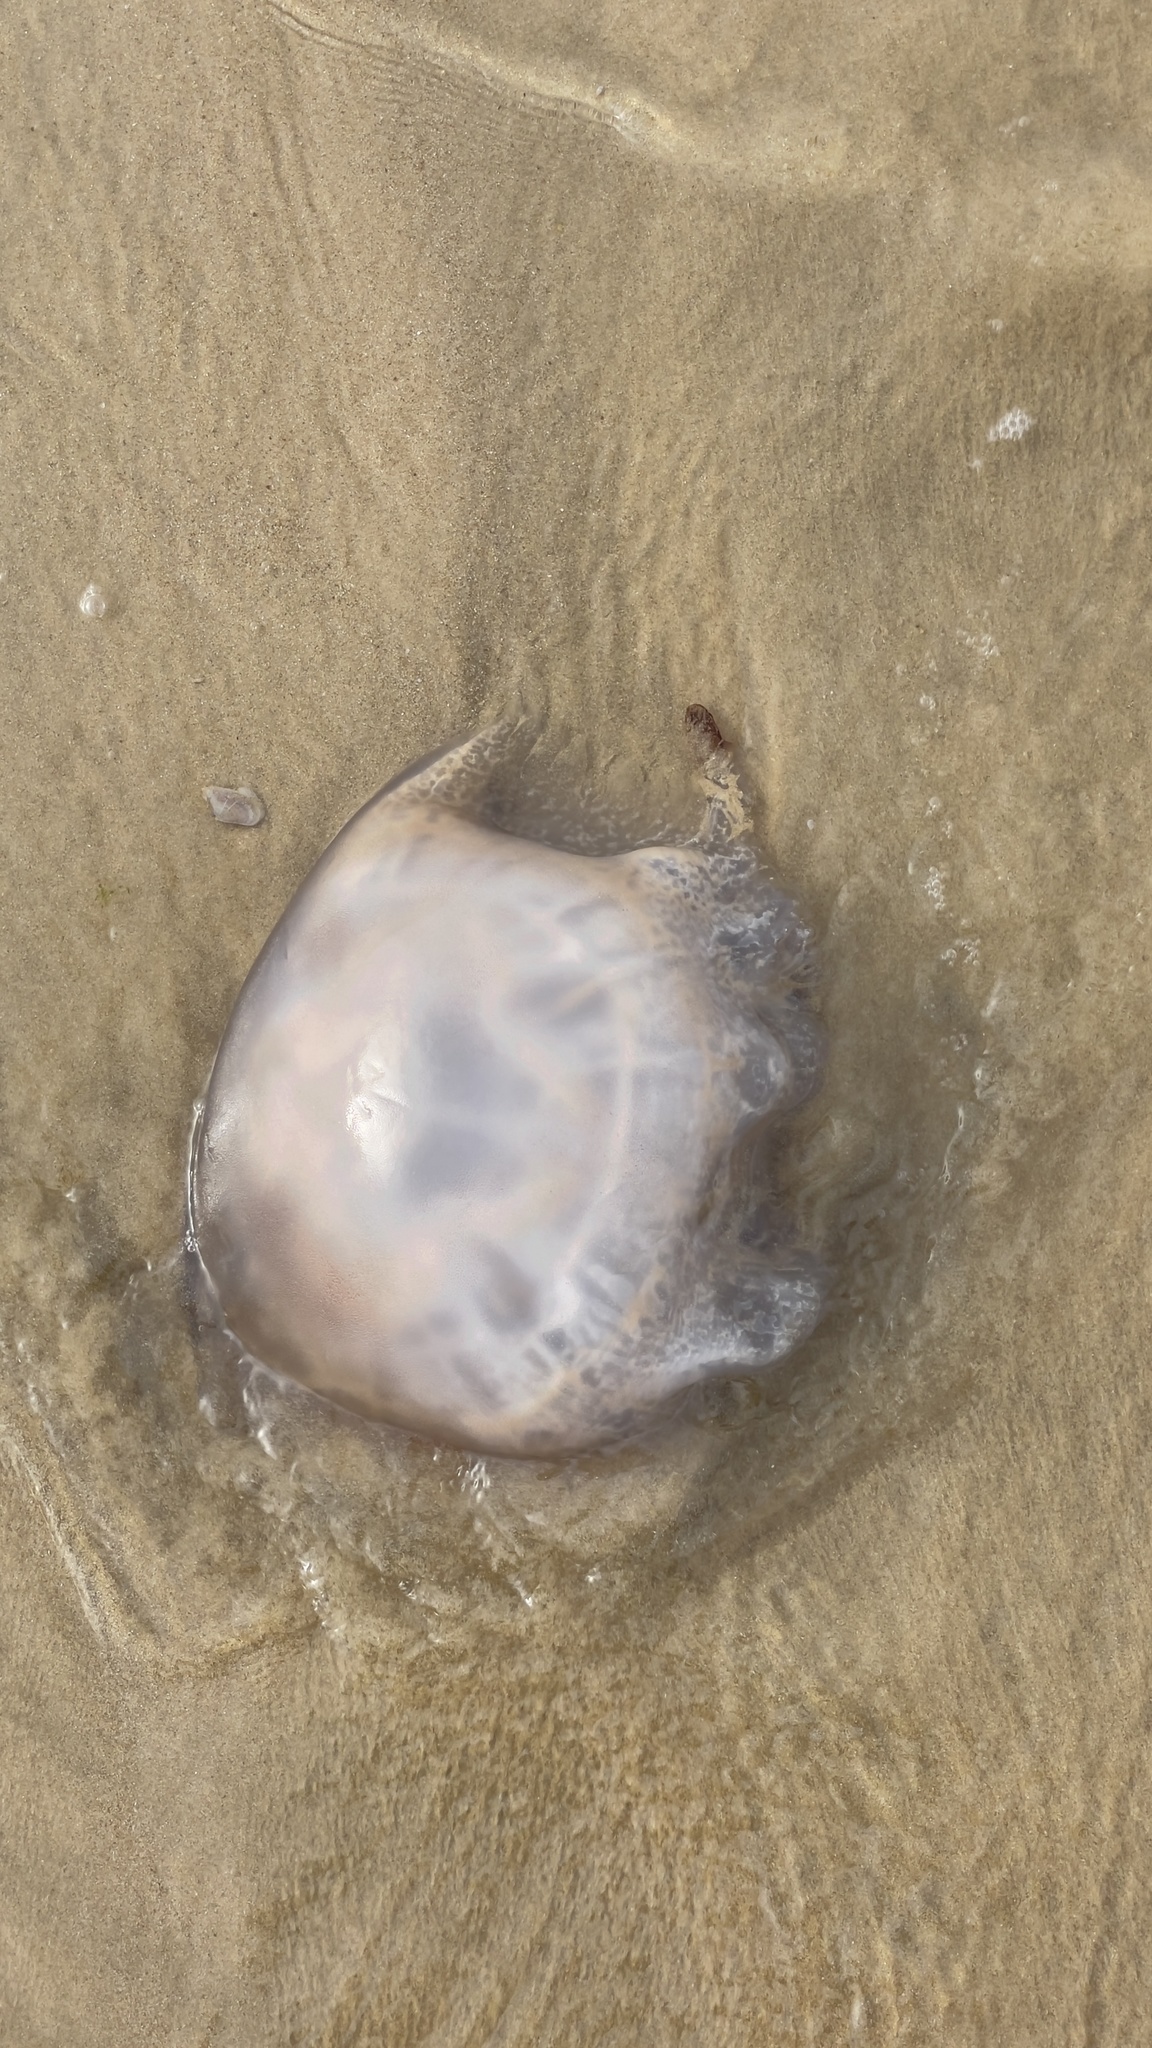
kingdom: Animalia
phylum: Cnidaria
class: Scyphozoa
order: Rhizostomeae
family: Rhizostomatidae
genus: Rhizostoma
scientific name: Rhizostoma luteum
